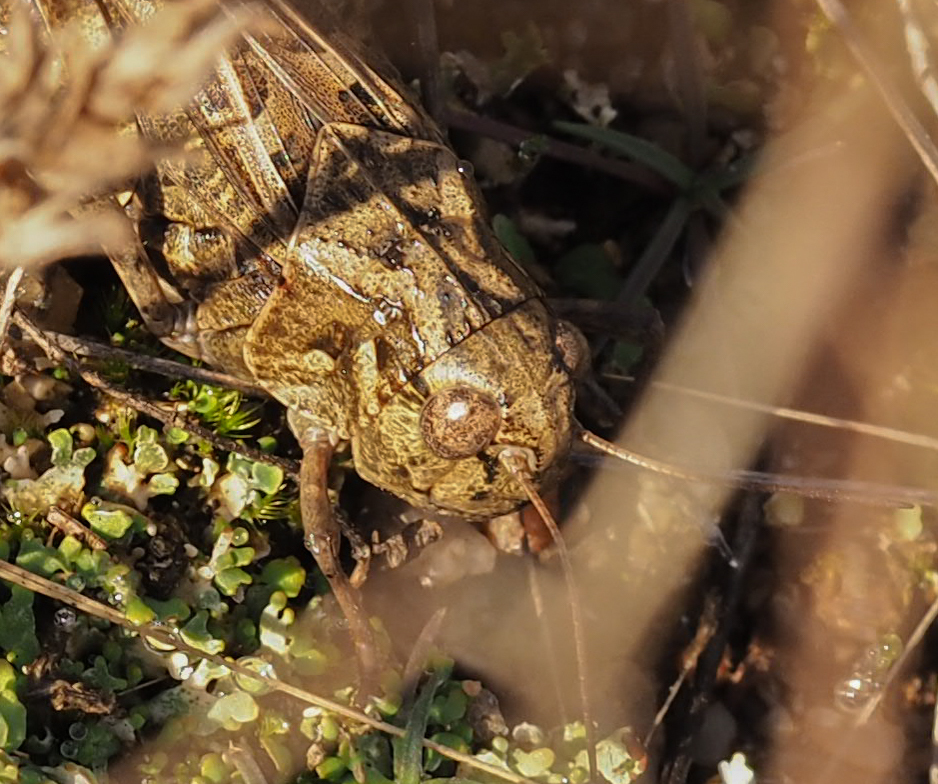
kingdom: Animalia
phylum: Arthropoda
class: Insecta
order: Orthoptera
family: Acrididae
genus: Hippiscus
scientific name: Hippiscus ocelote
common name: Wrinkled grasshopper
